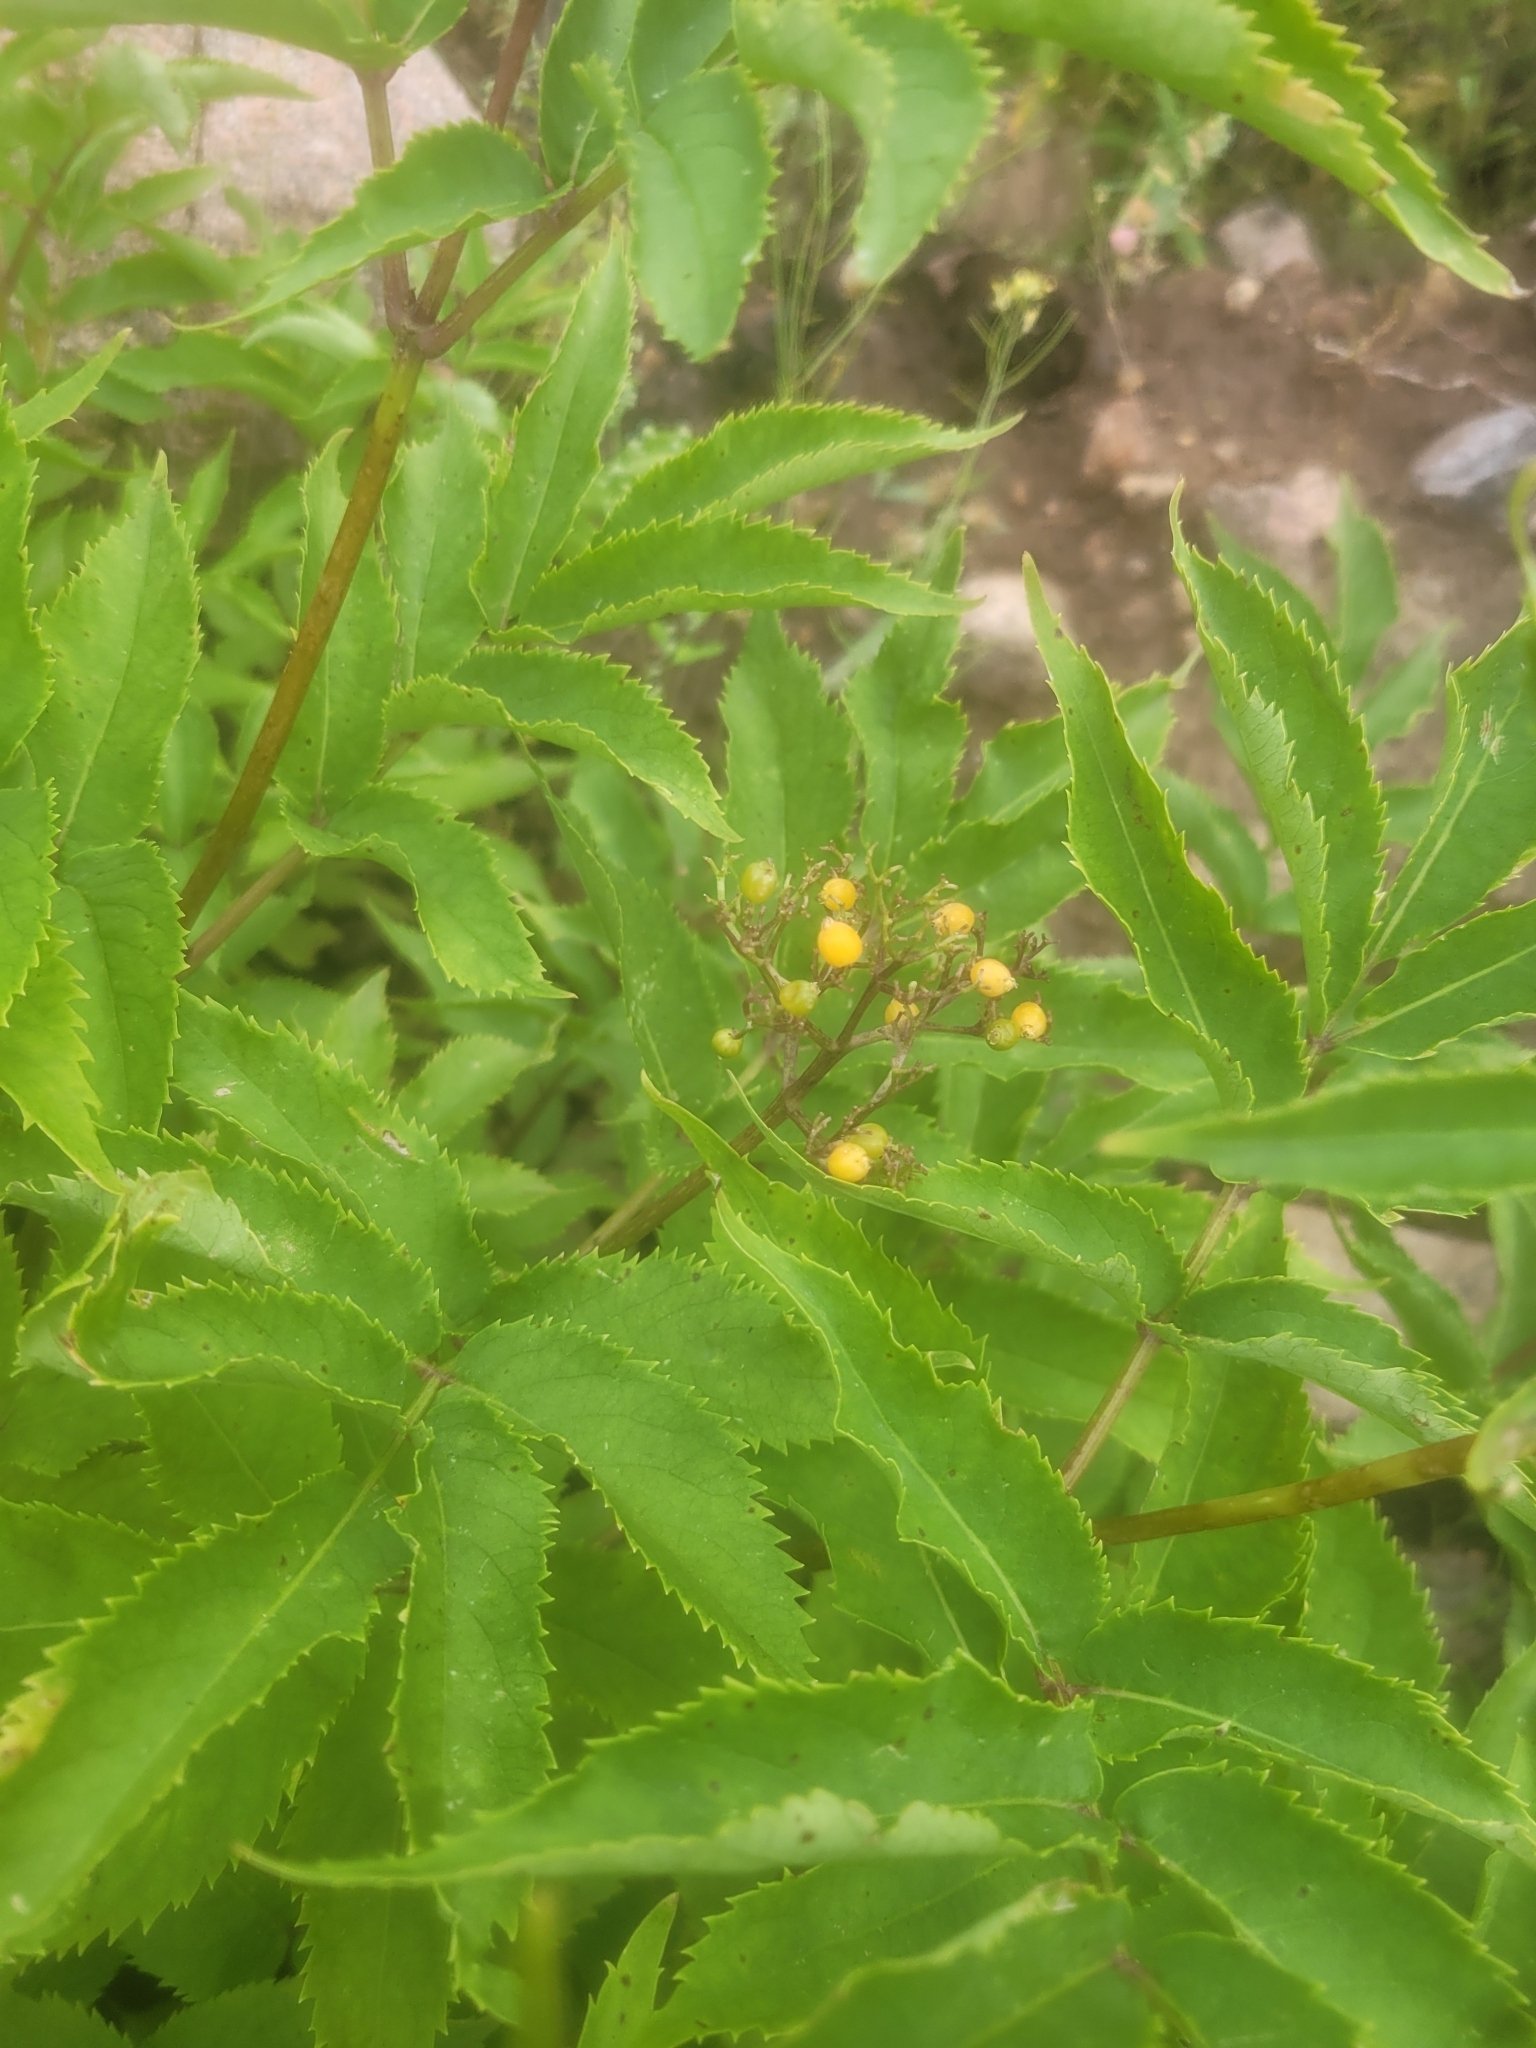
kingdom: Plantae
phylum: Tracheophyta
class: Magnoliopsida
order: Dipsacales
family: Viburnaceae
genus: Sambucus
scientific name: Sambucus racemosa
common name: Red-berried elder
